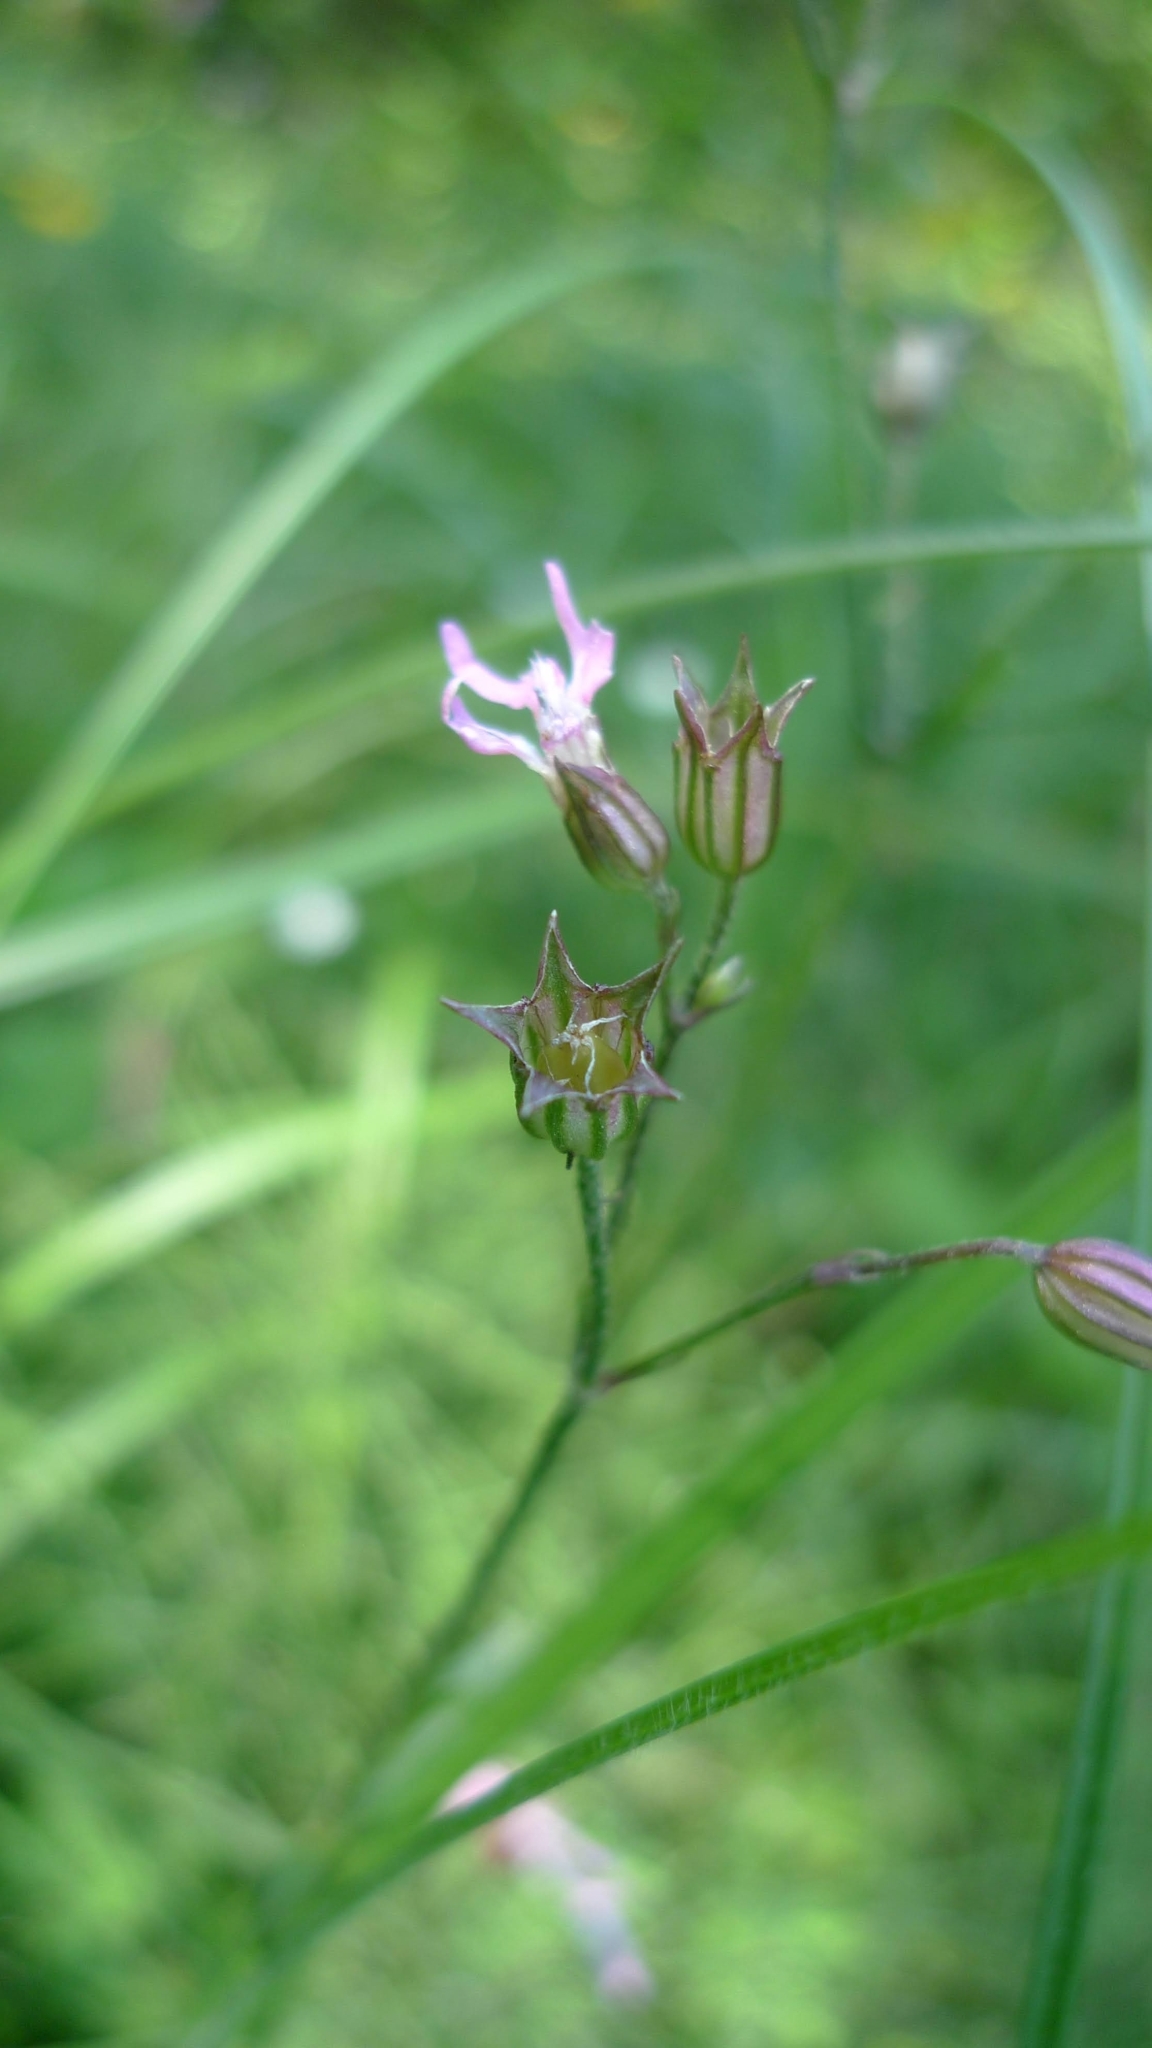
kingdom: Plantae
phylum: Tracheophyta
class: Magnoliopsida
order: Caryophyllales
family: Caryophyllaceae
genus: Silene
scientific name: Silene flos-cuculi
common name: Ragged-robin
